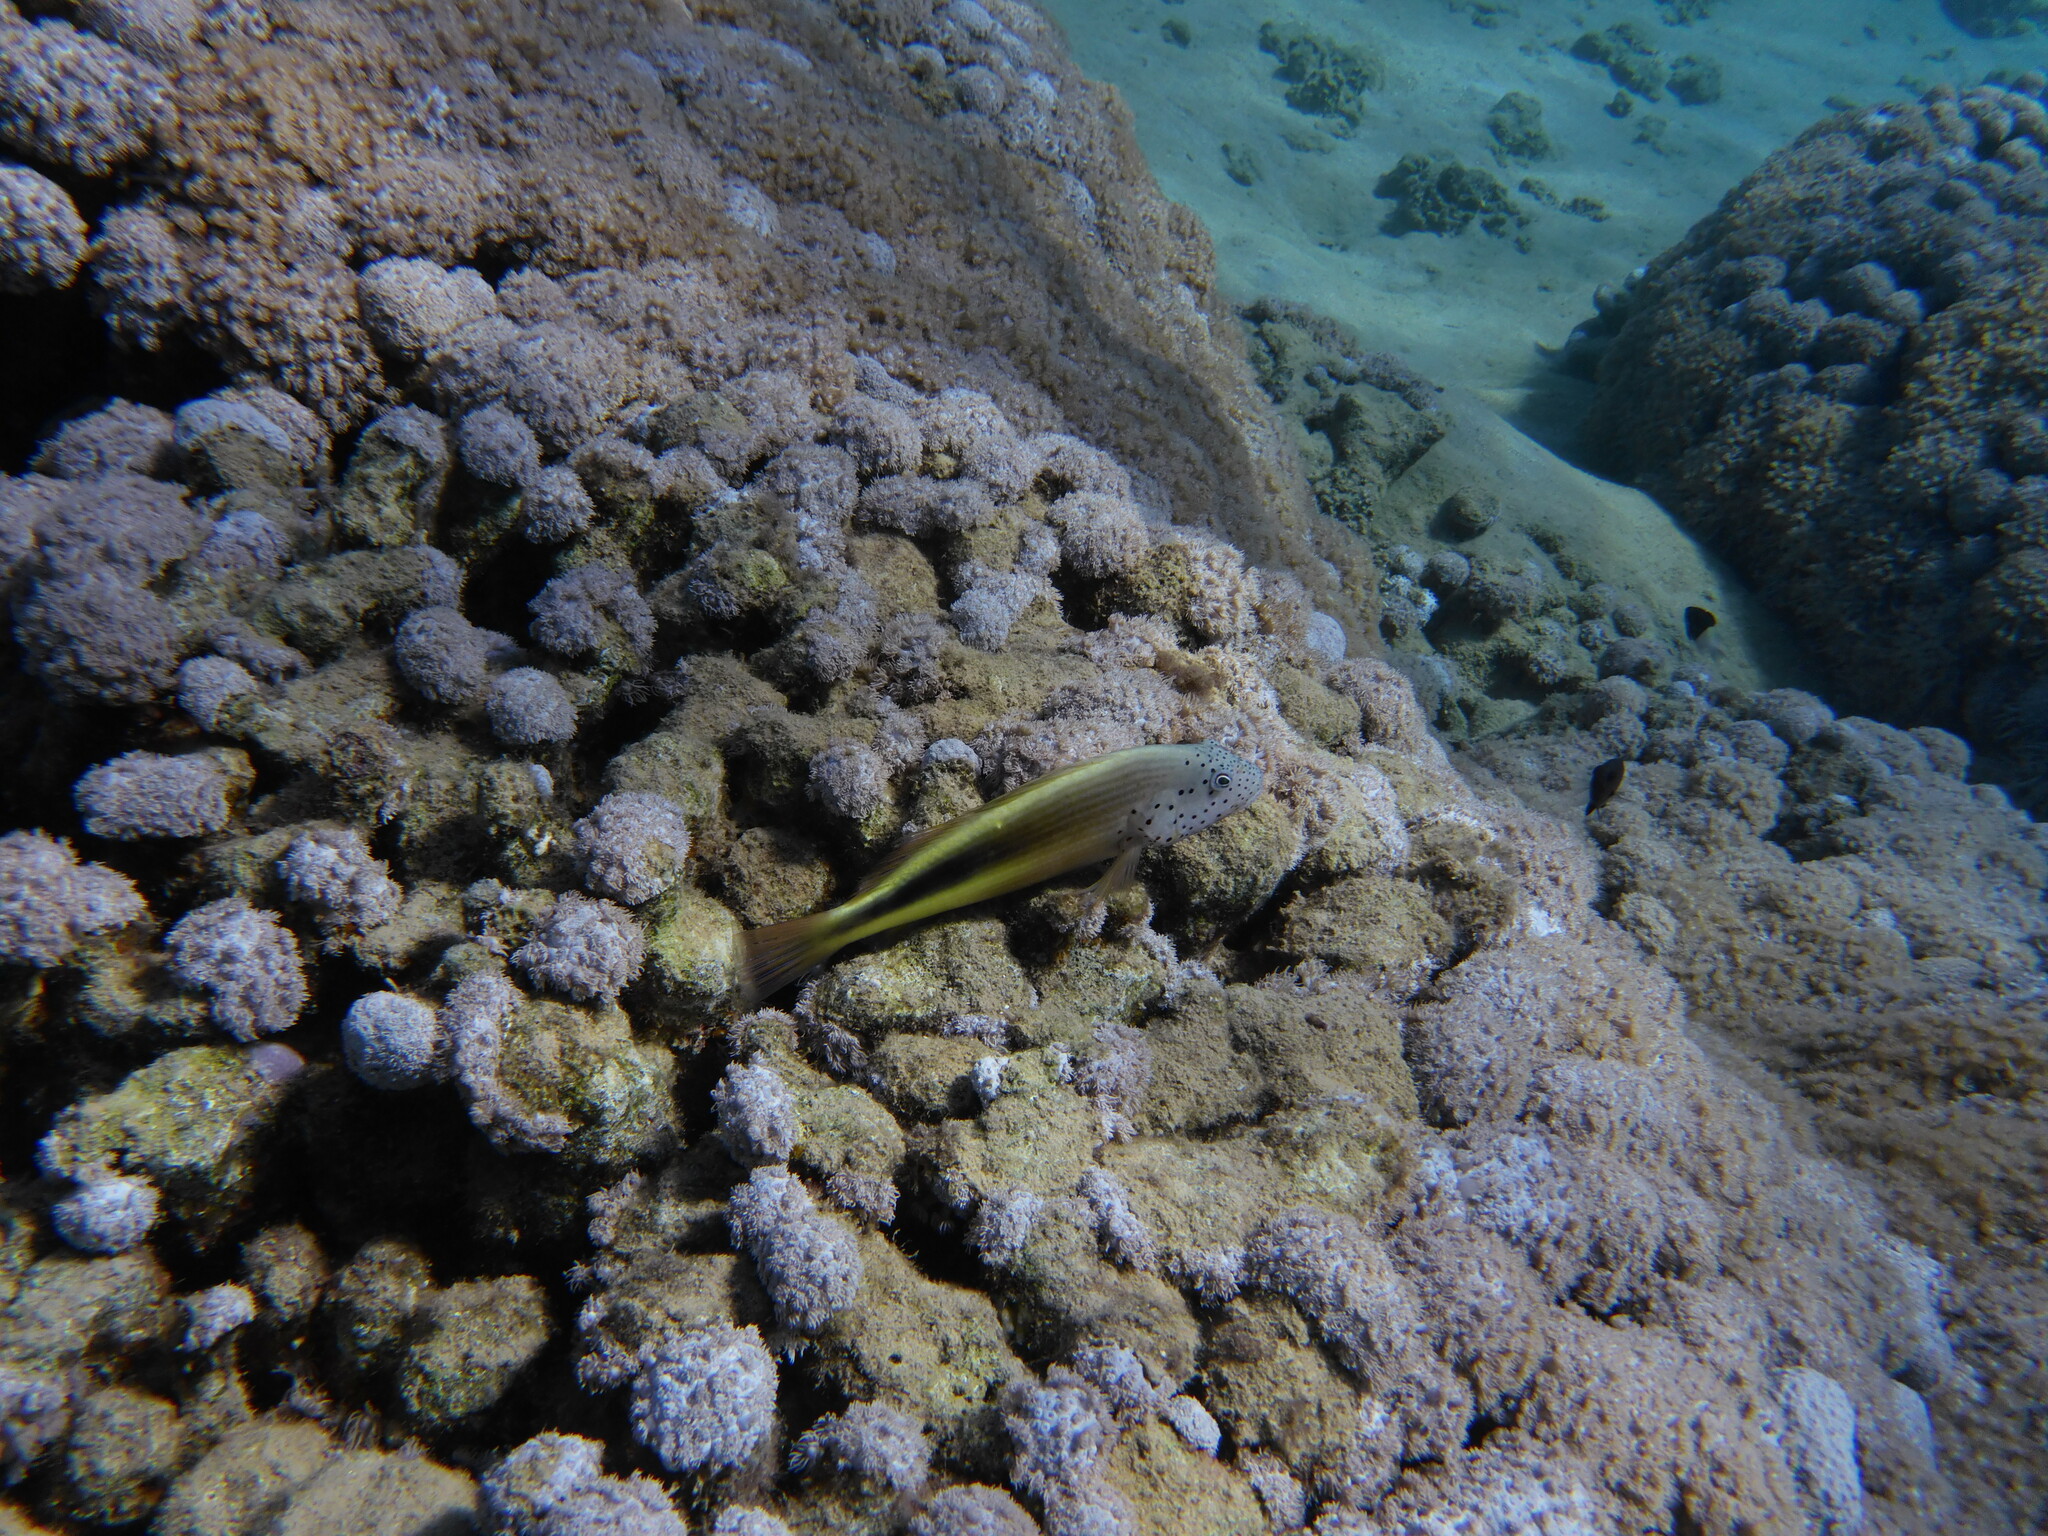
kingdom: Animalia
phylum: Chordata
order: Perciformes
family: Cirrhitidae
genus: Paracirrhites
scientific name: Paracirrhites forsteri
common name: Freckled hawkfish
